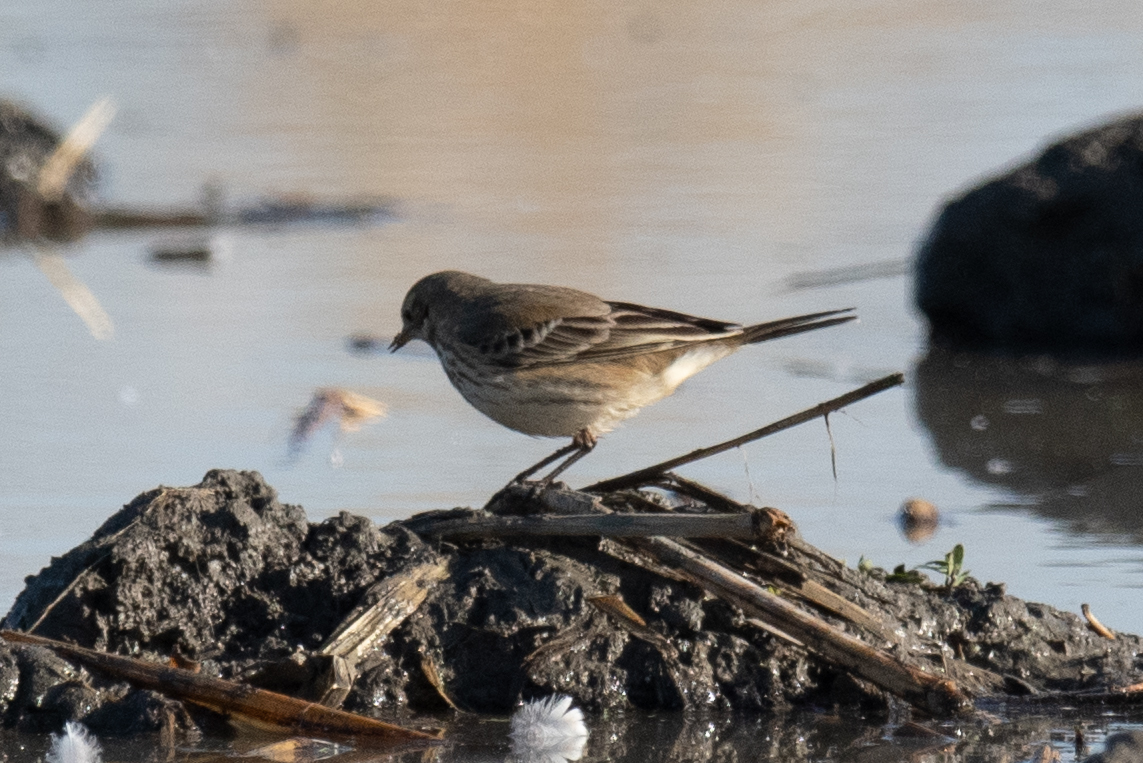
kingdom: Animalia
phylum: Chordata
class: Aves
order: Passeriformes
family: Motacillidae
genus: Anthus
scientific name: Anthus rubescens
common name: Buff-bellied pipit
